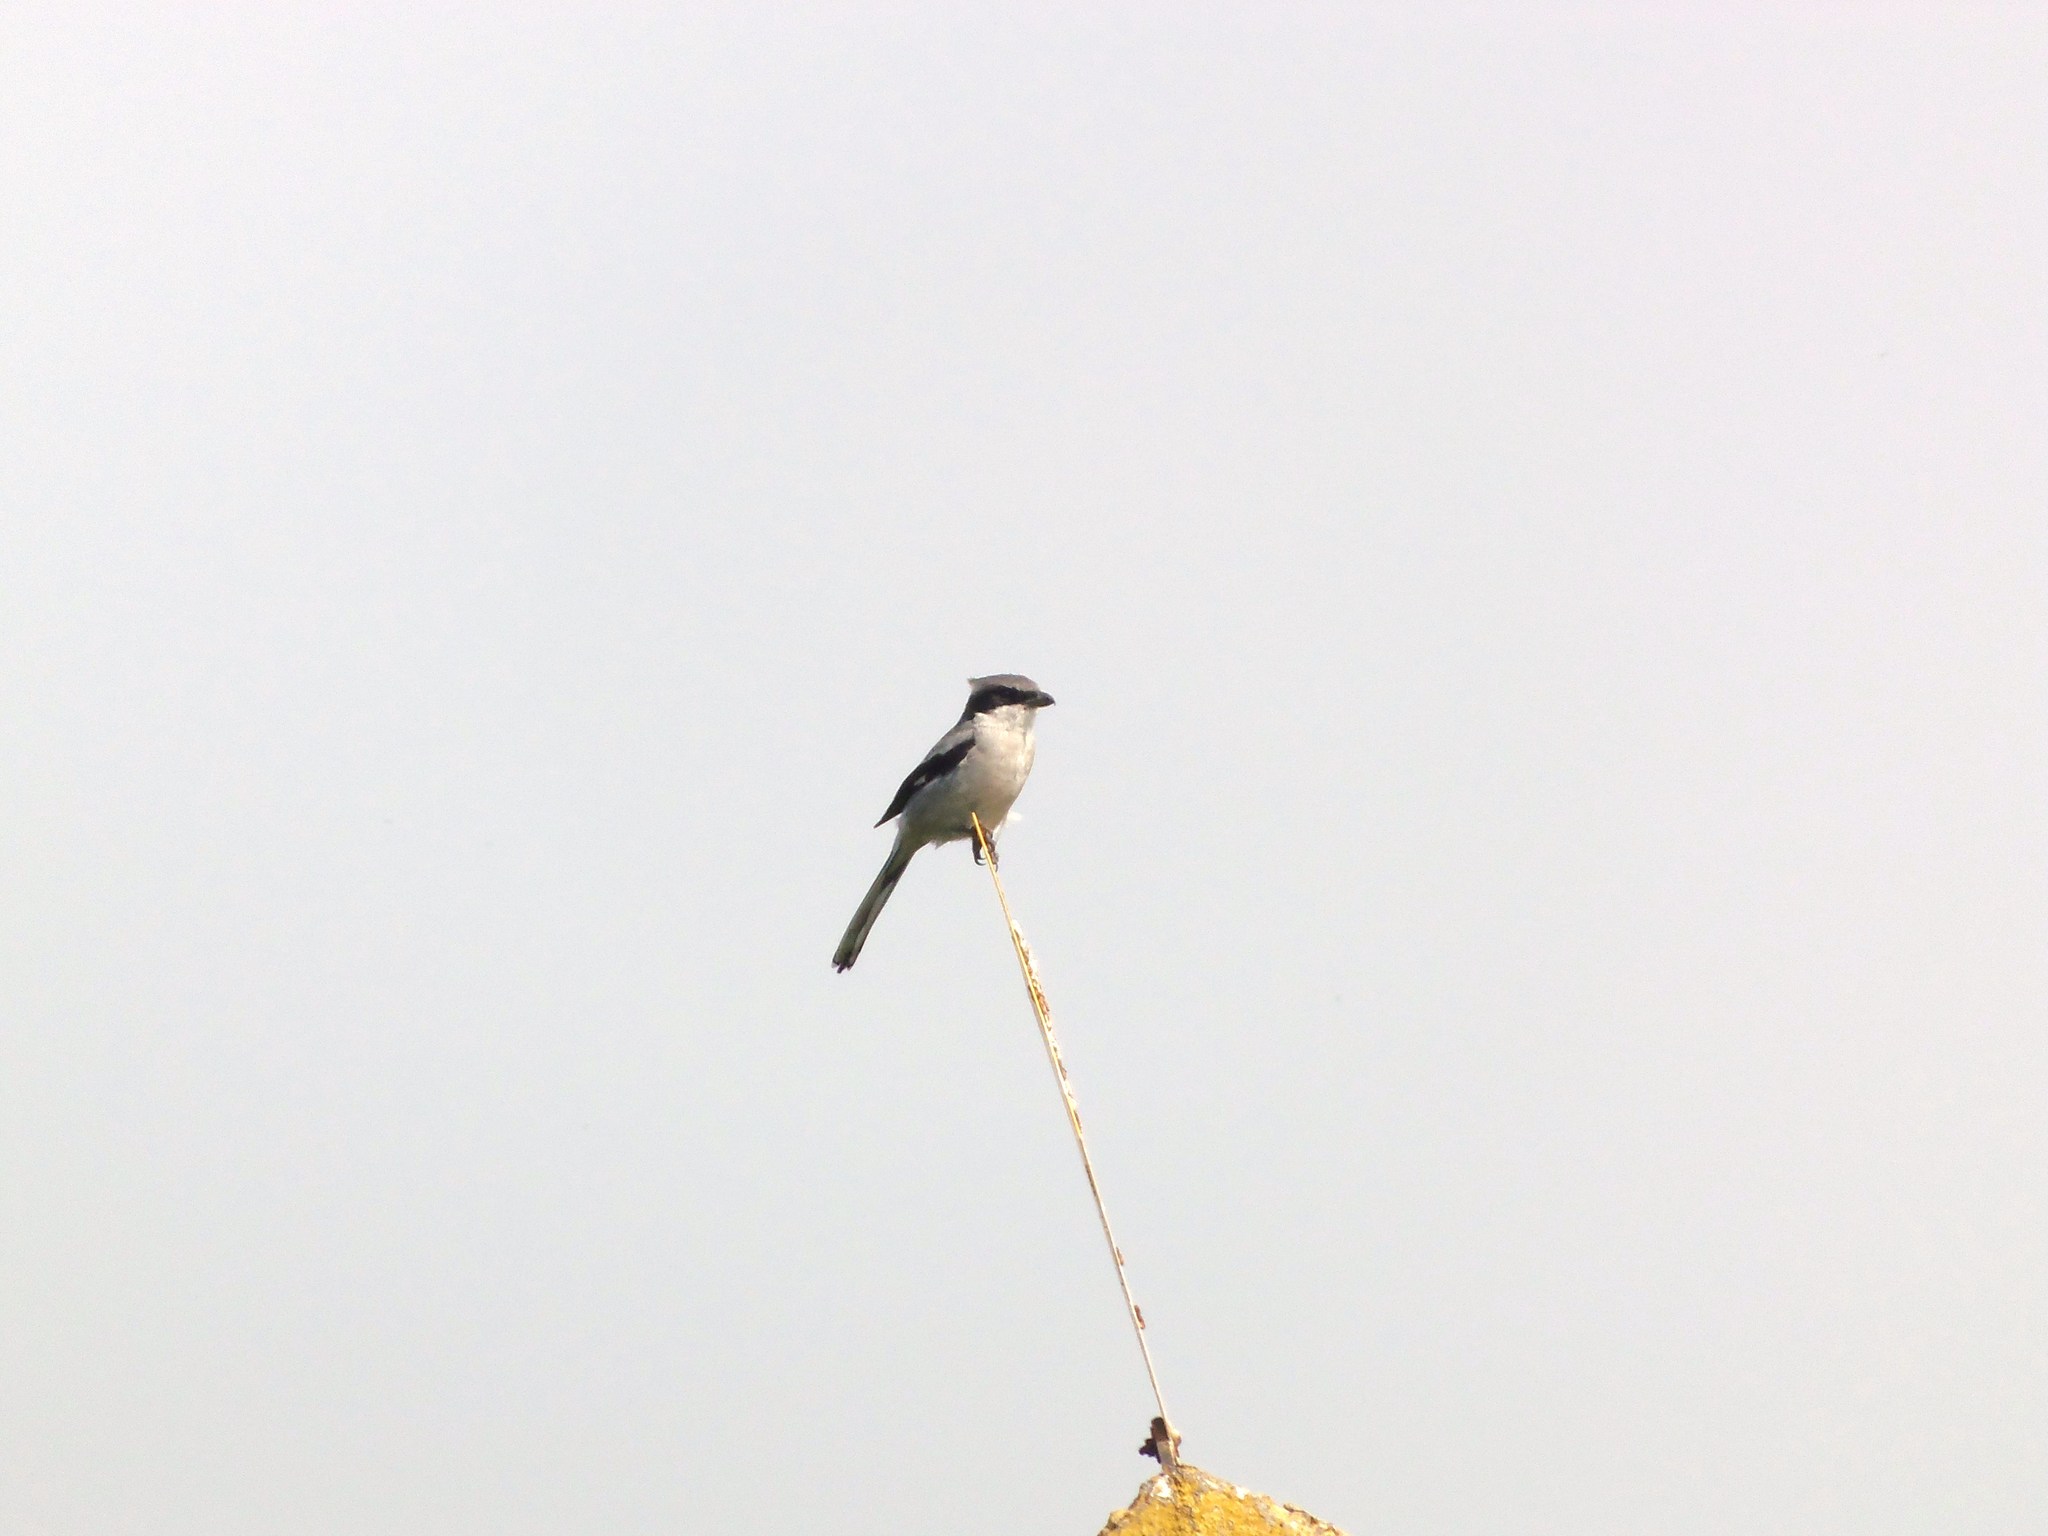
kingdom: Animalia
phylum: Chordata
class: Aves
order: Passeriformes
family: Laniidae
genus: Lanius
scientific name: Lanius ludovicianus
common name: Loggerhead shrike
